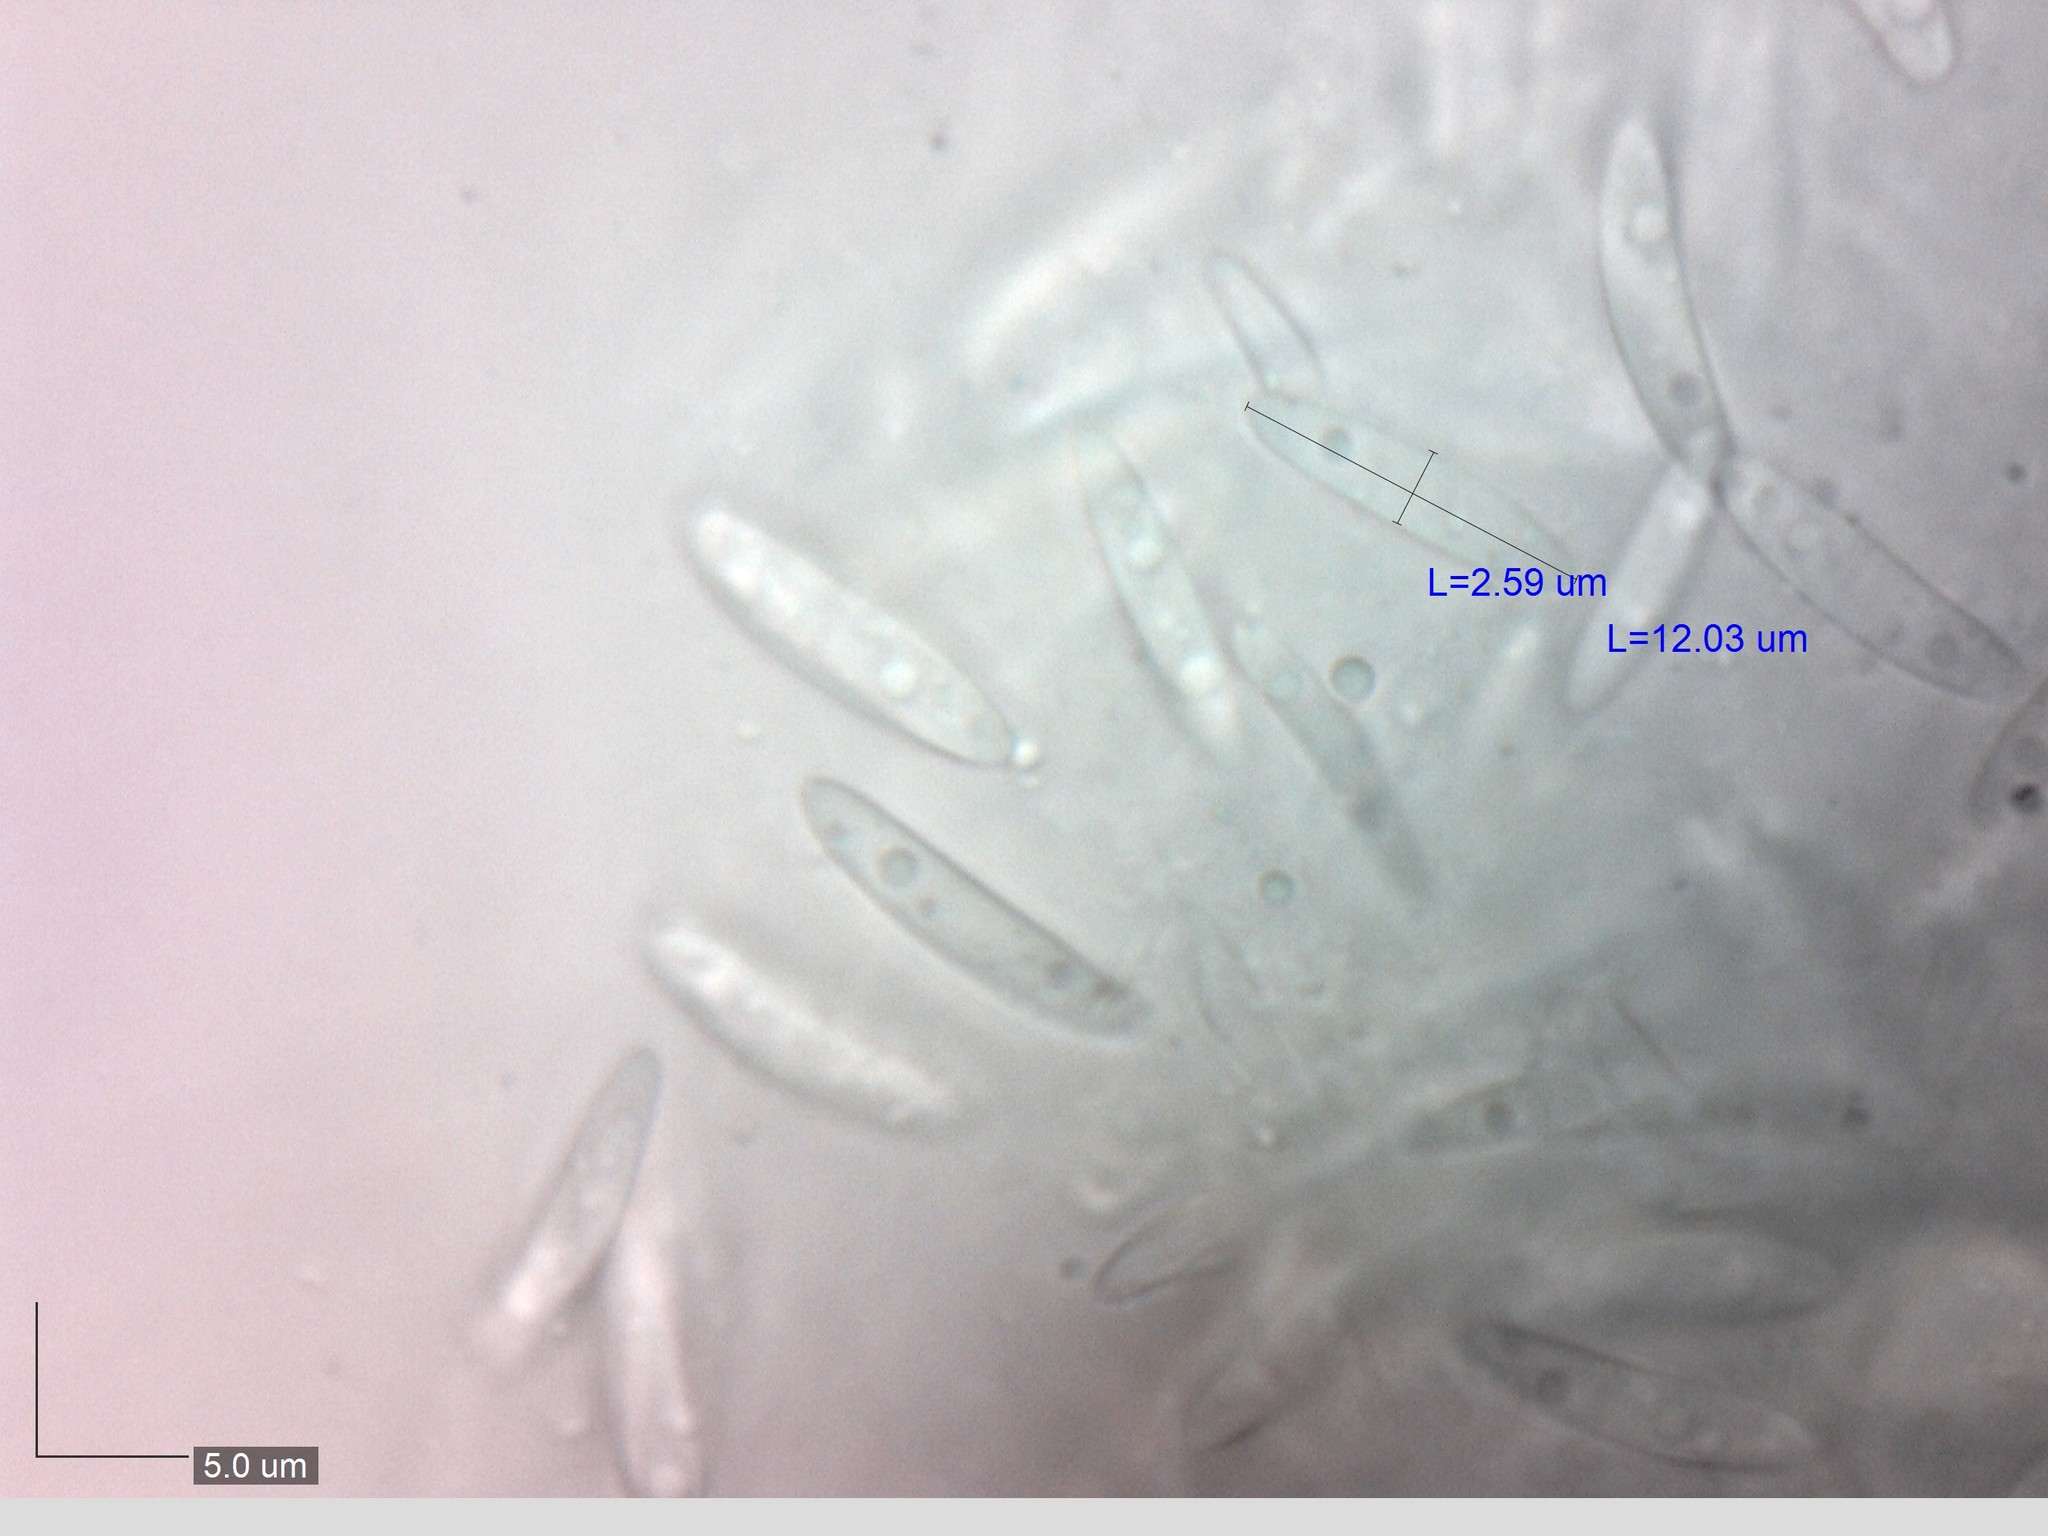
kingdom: Fungi
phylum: Ascomycota
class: Leotiomycetes
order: Helotiales
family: Chlorociboriaceae
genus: Chlorociboria
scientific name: Chlorociboria aeruginosa
